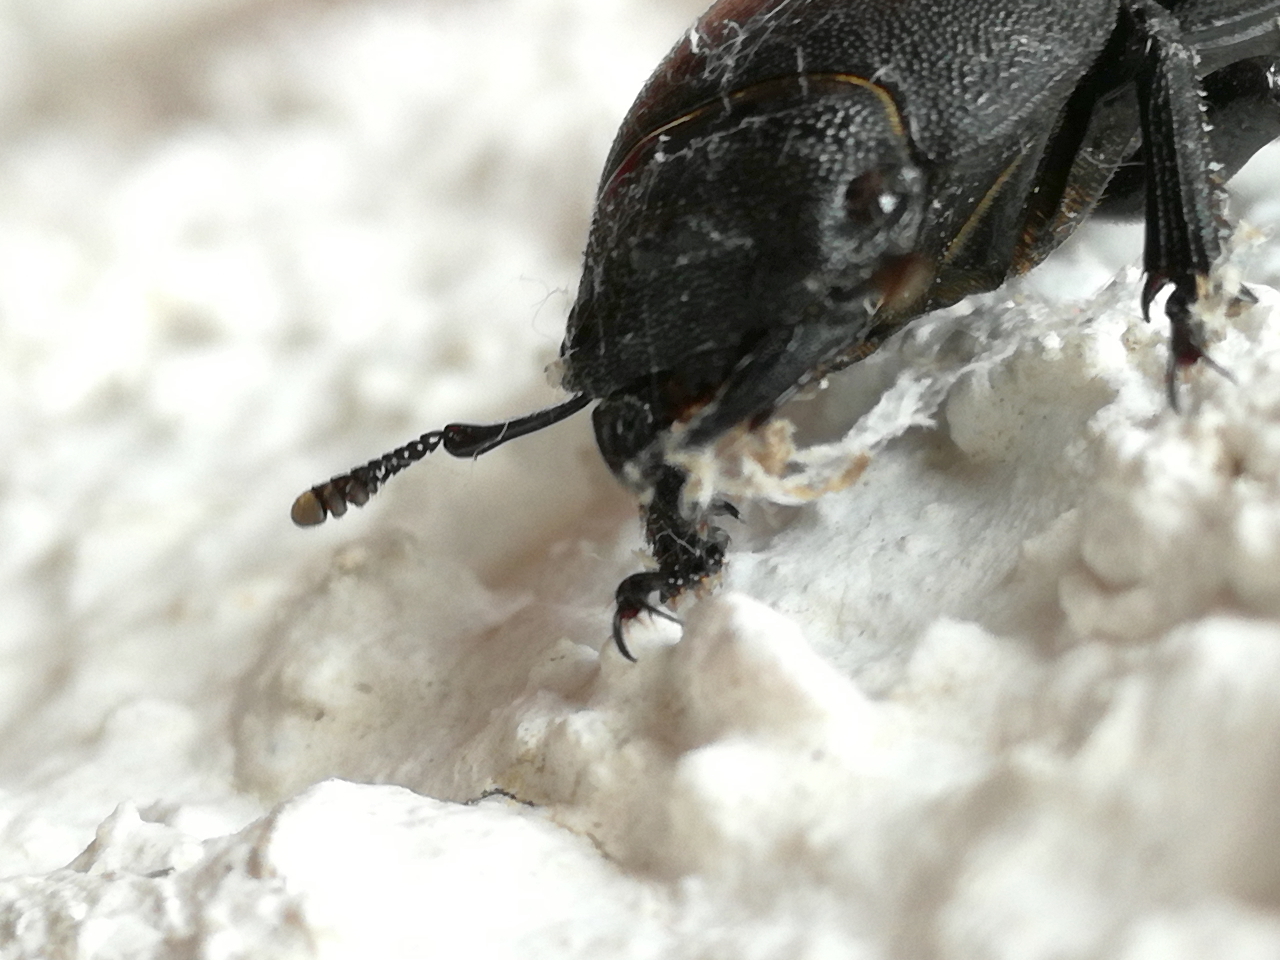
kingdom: Animalia
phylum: Arthropoda
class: Insecta
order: Coleoptera
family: Lucanidae
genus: Dorcus
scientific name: Dorcus parallelipipedus
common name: Lesser stag beetle
